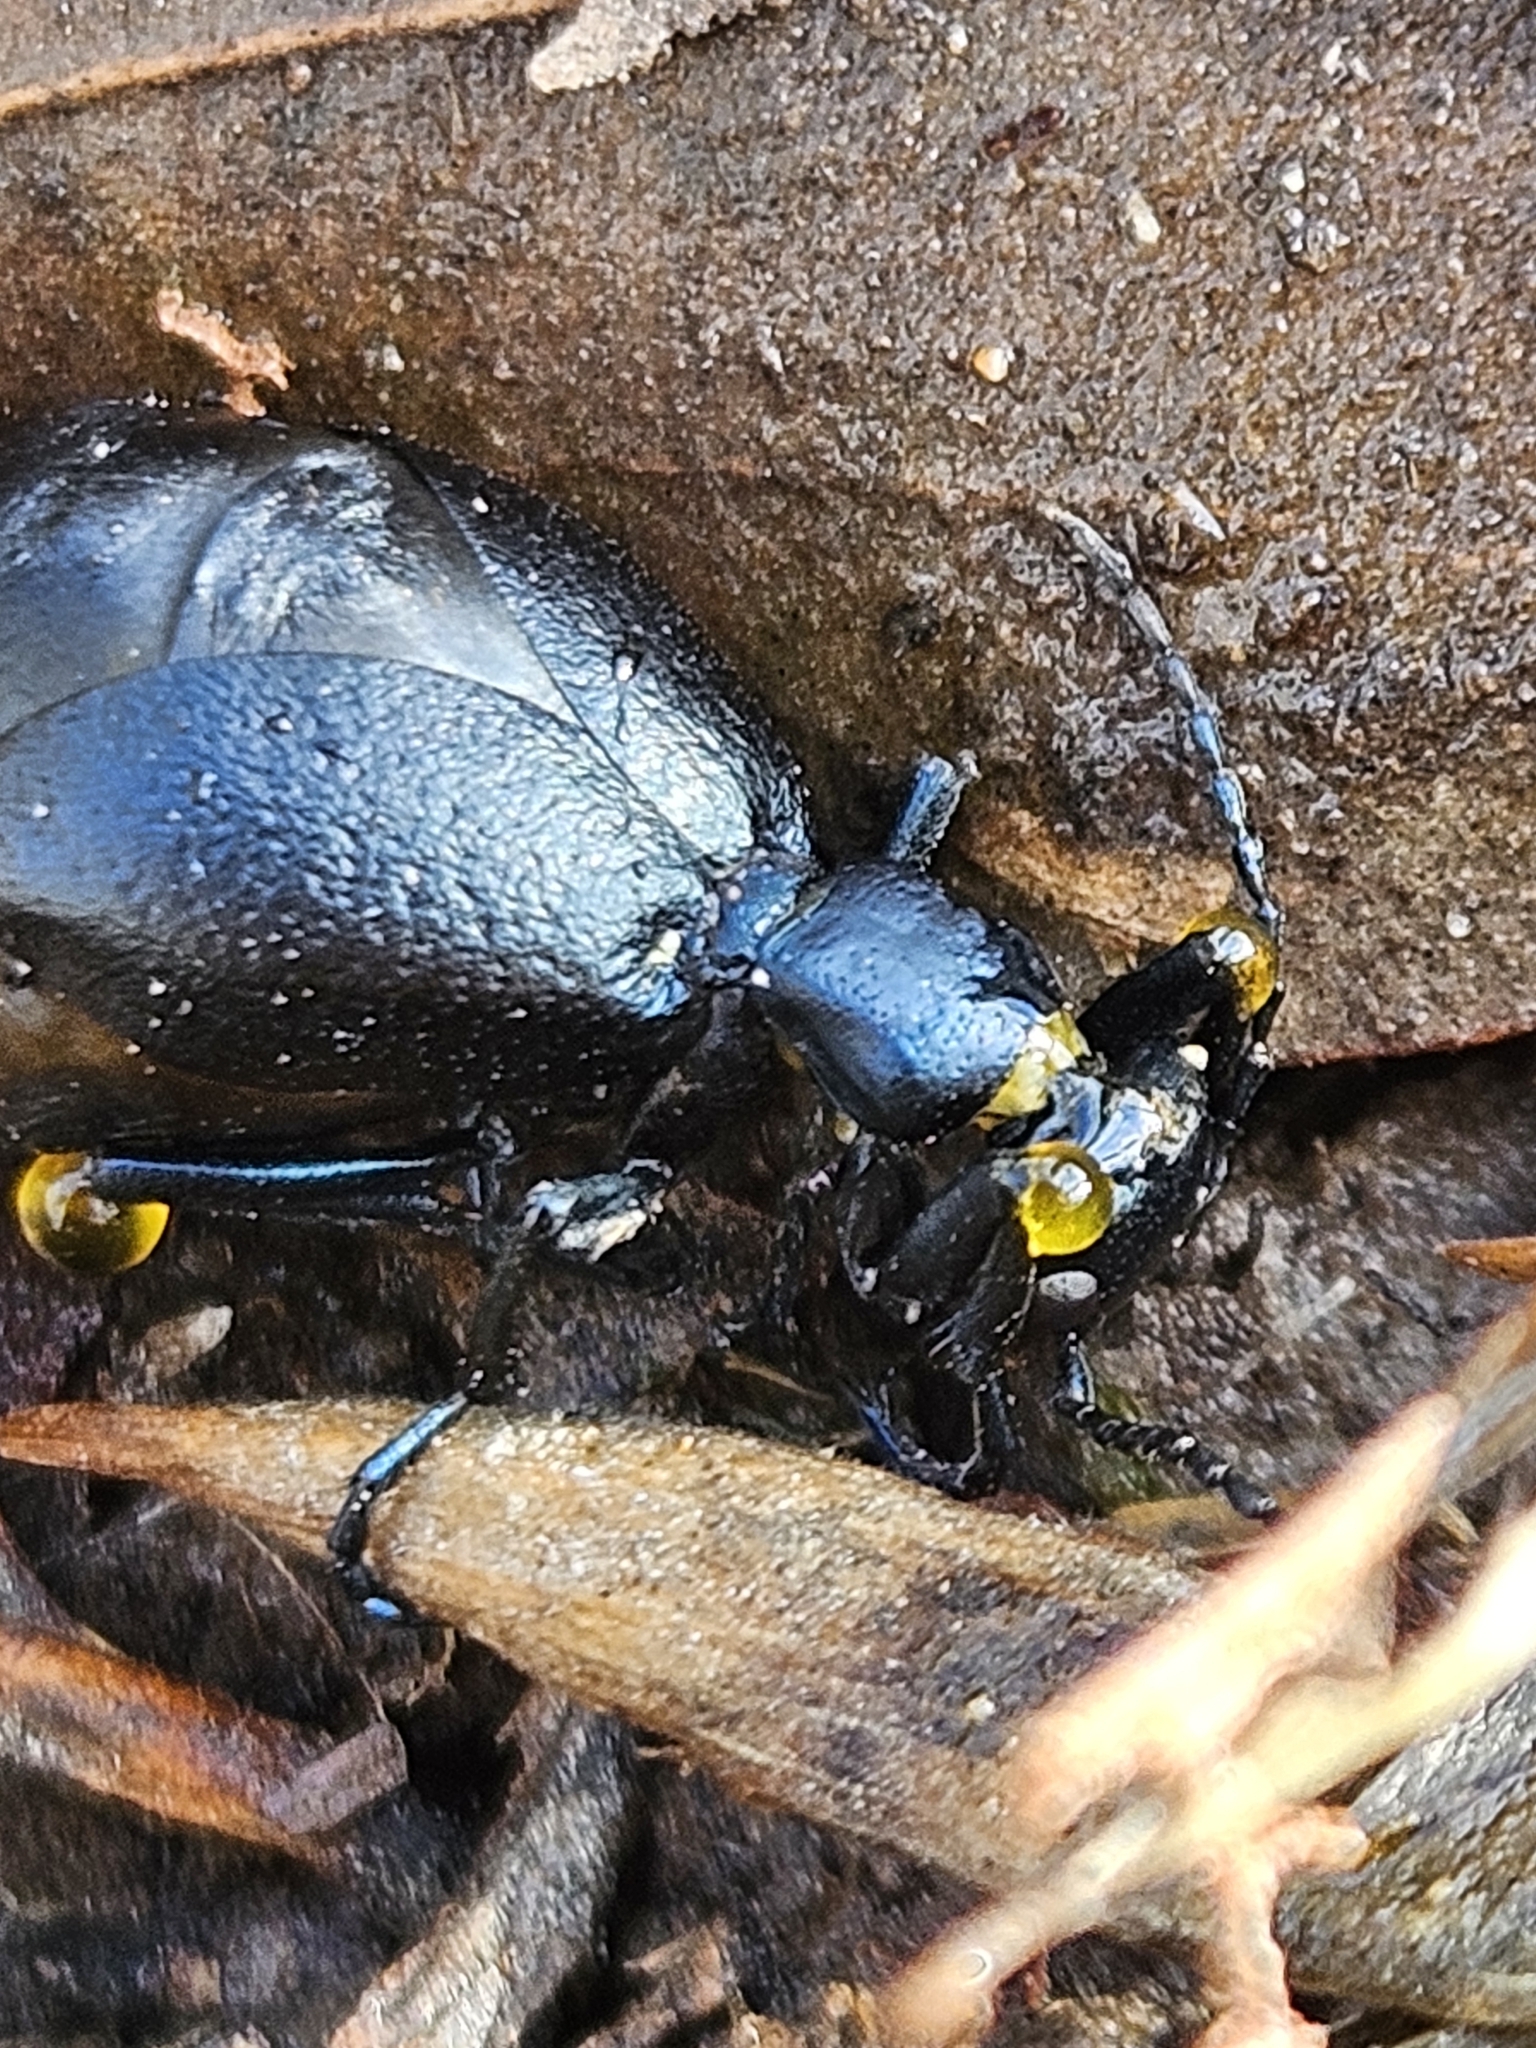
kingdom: Animalia
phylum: Arthropoda
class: Insecta
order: Coleoptera
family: Meloidae
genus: Meloe
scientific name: Meloe americanus
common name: Buttercup oil beetle
